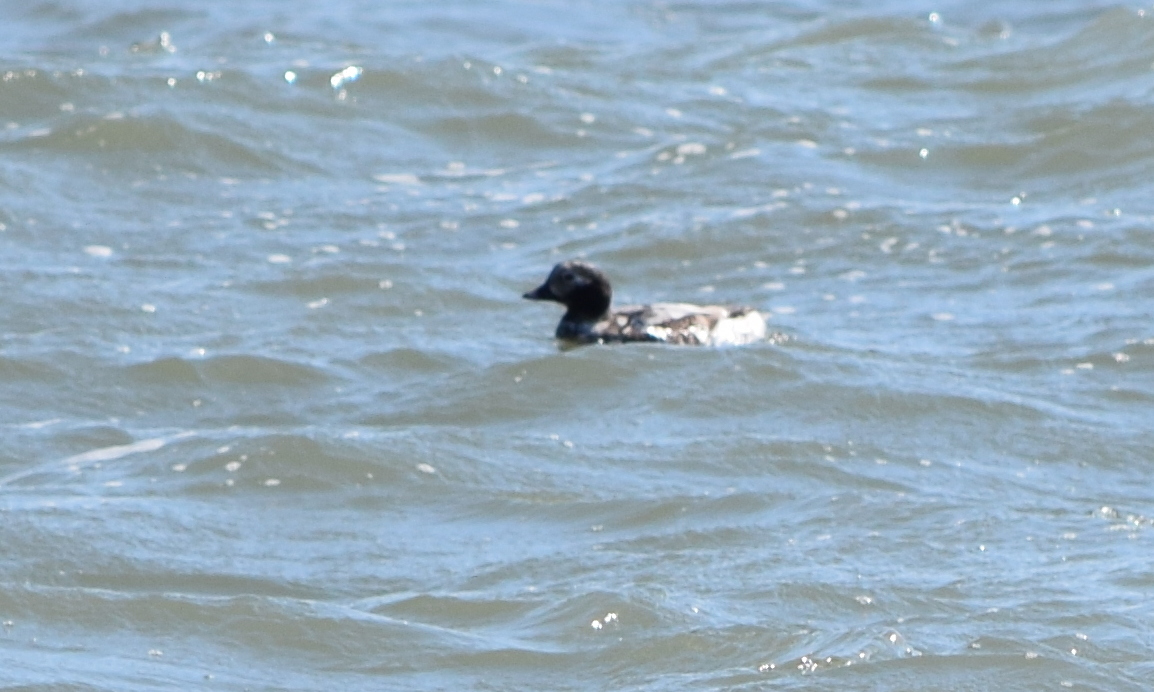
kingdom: Animalia
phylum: Chordata
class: Aves
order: Anseriformes
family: Anatidae
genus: Clangula
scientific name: Clangula hyemalis
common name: Long-tailed duck
